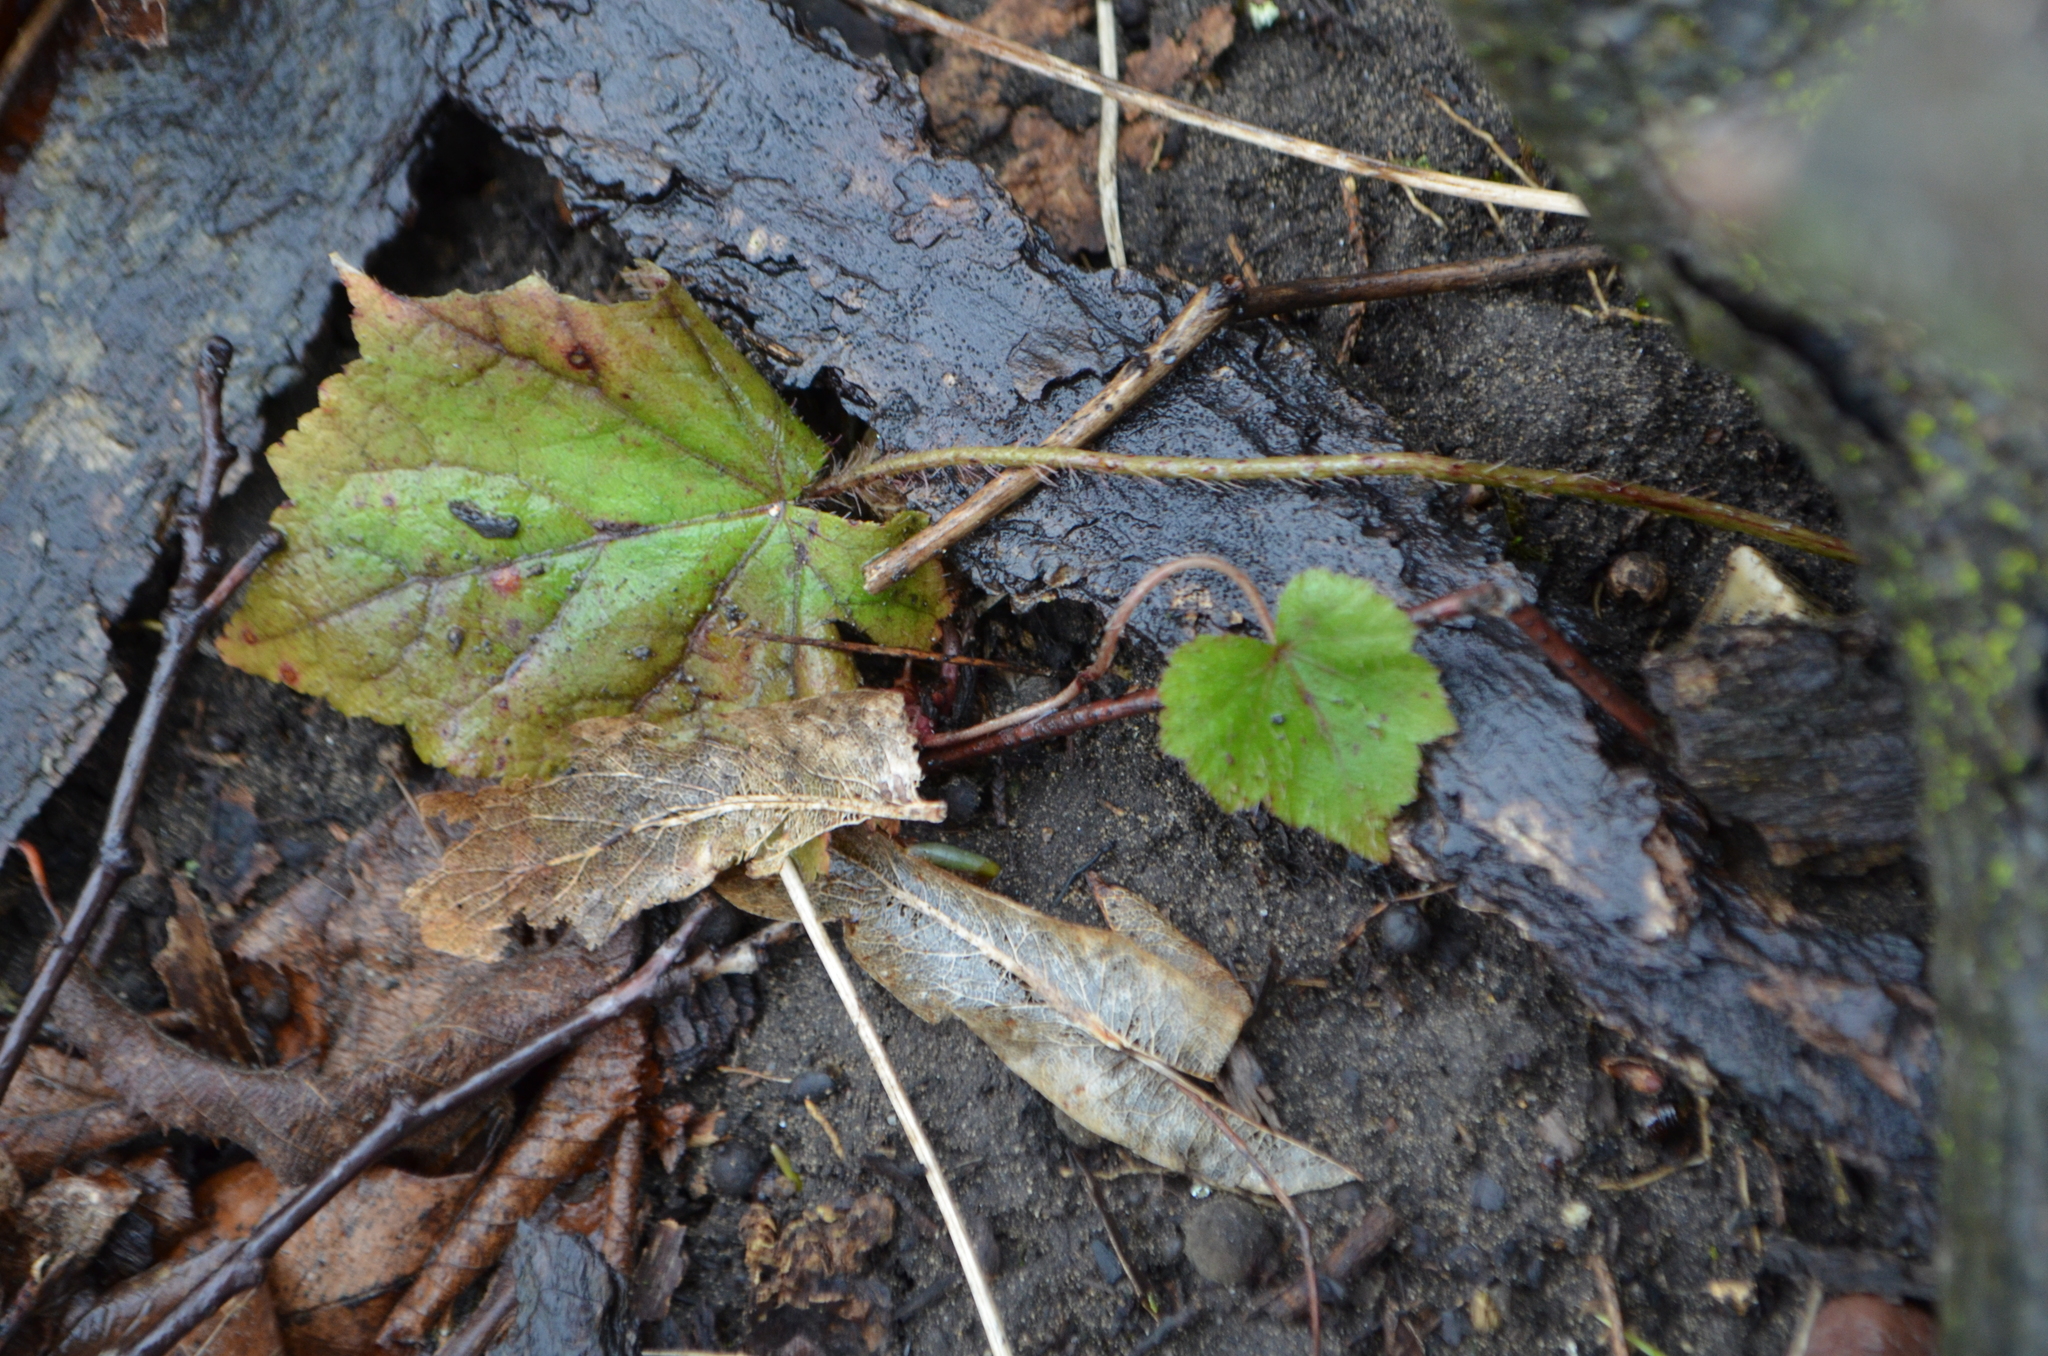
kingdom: Plantae
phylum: Tracheophyta
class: Magnoliopsida
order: Saxifragales
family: Saxifragaceae
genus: Mitella
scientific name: Mitella diphylla
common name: Coolwort
